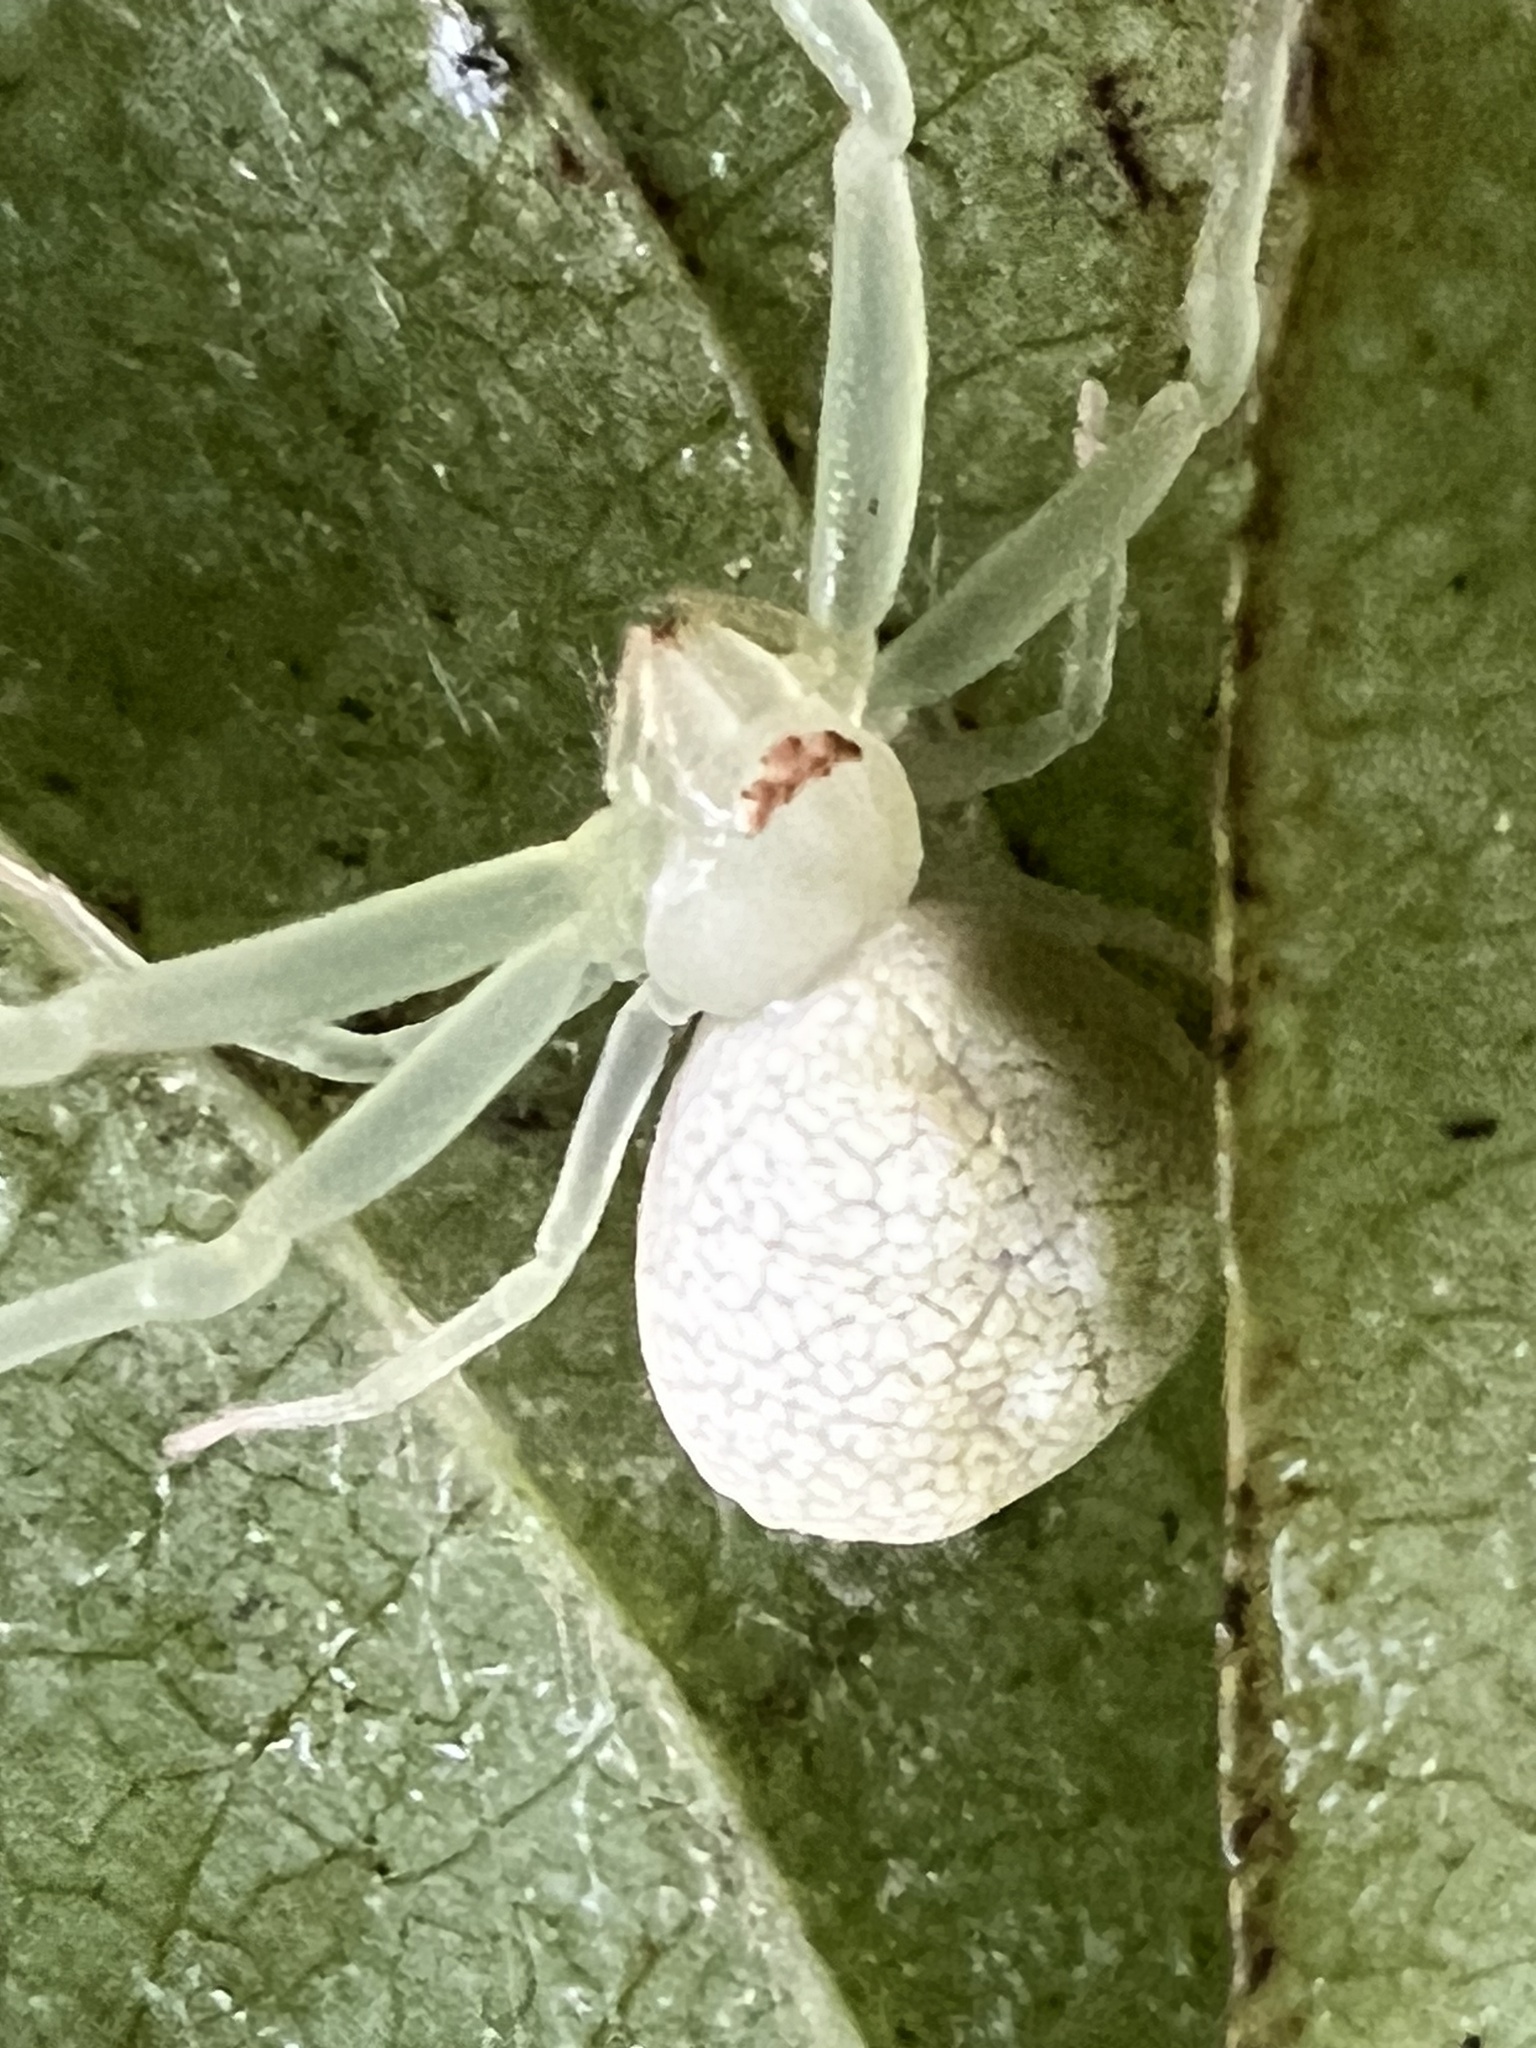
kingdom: Animalia
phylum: Arthropoda
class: Arachnida
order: Araneae
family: Thomisidae
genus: Misumessus
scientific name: Misumessus oblongus
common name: American green crab spider
